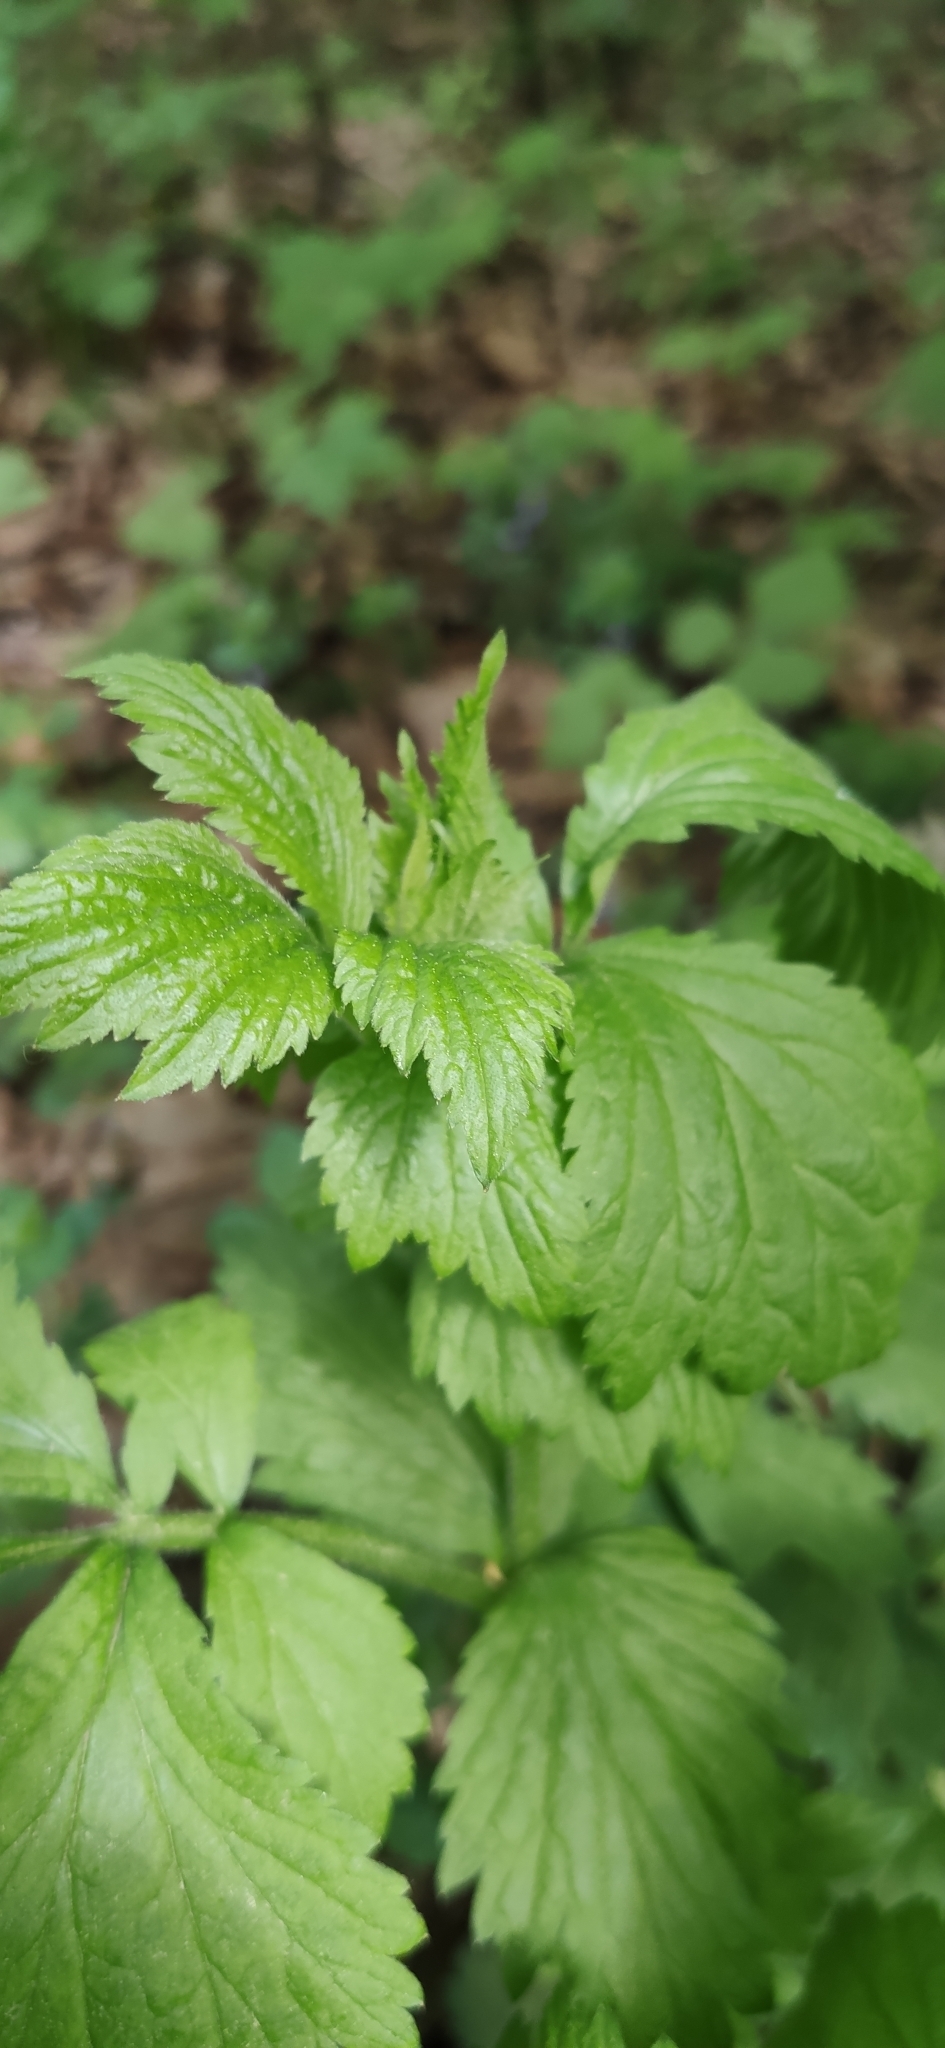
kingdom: Plantae
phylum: Tracheophyta
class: Magnoliopsida
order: Rosales
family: Rosaceae
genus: Geum
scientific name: Geum urbanum
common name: Wood avens
